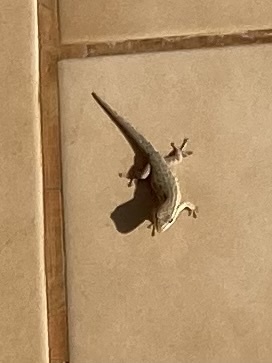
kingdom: Animalia
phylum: Chordata
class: Squamata
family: Gekkonidae
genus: Lygodactylus
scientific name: Lygodactylus capensis
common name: Cape dwarf gecko
